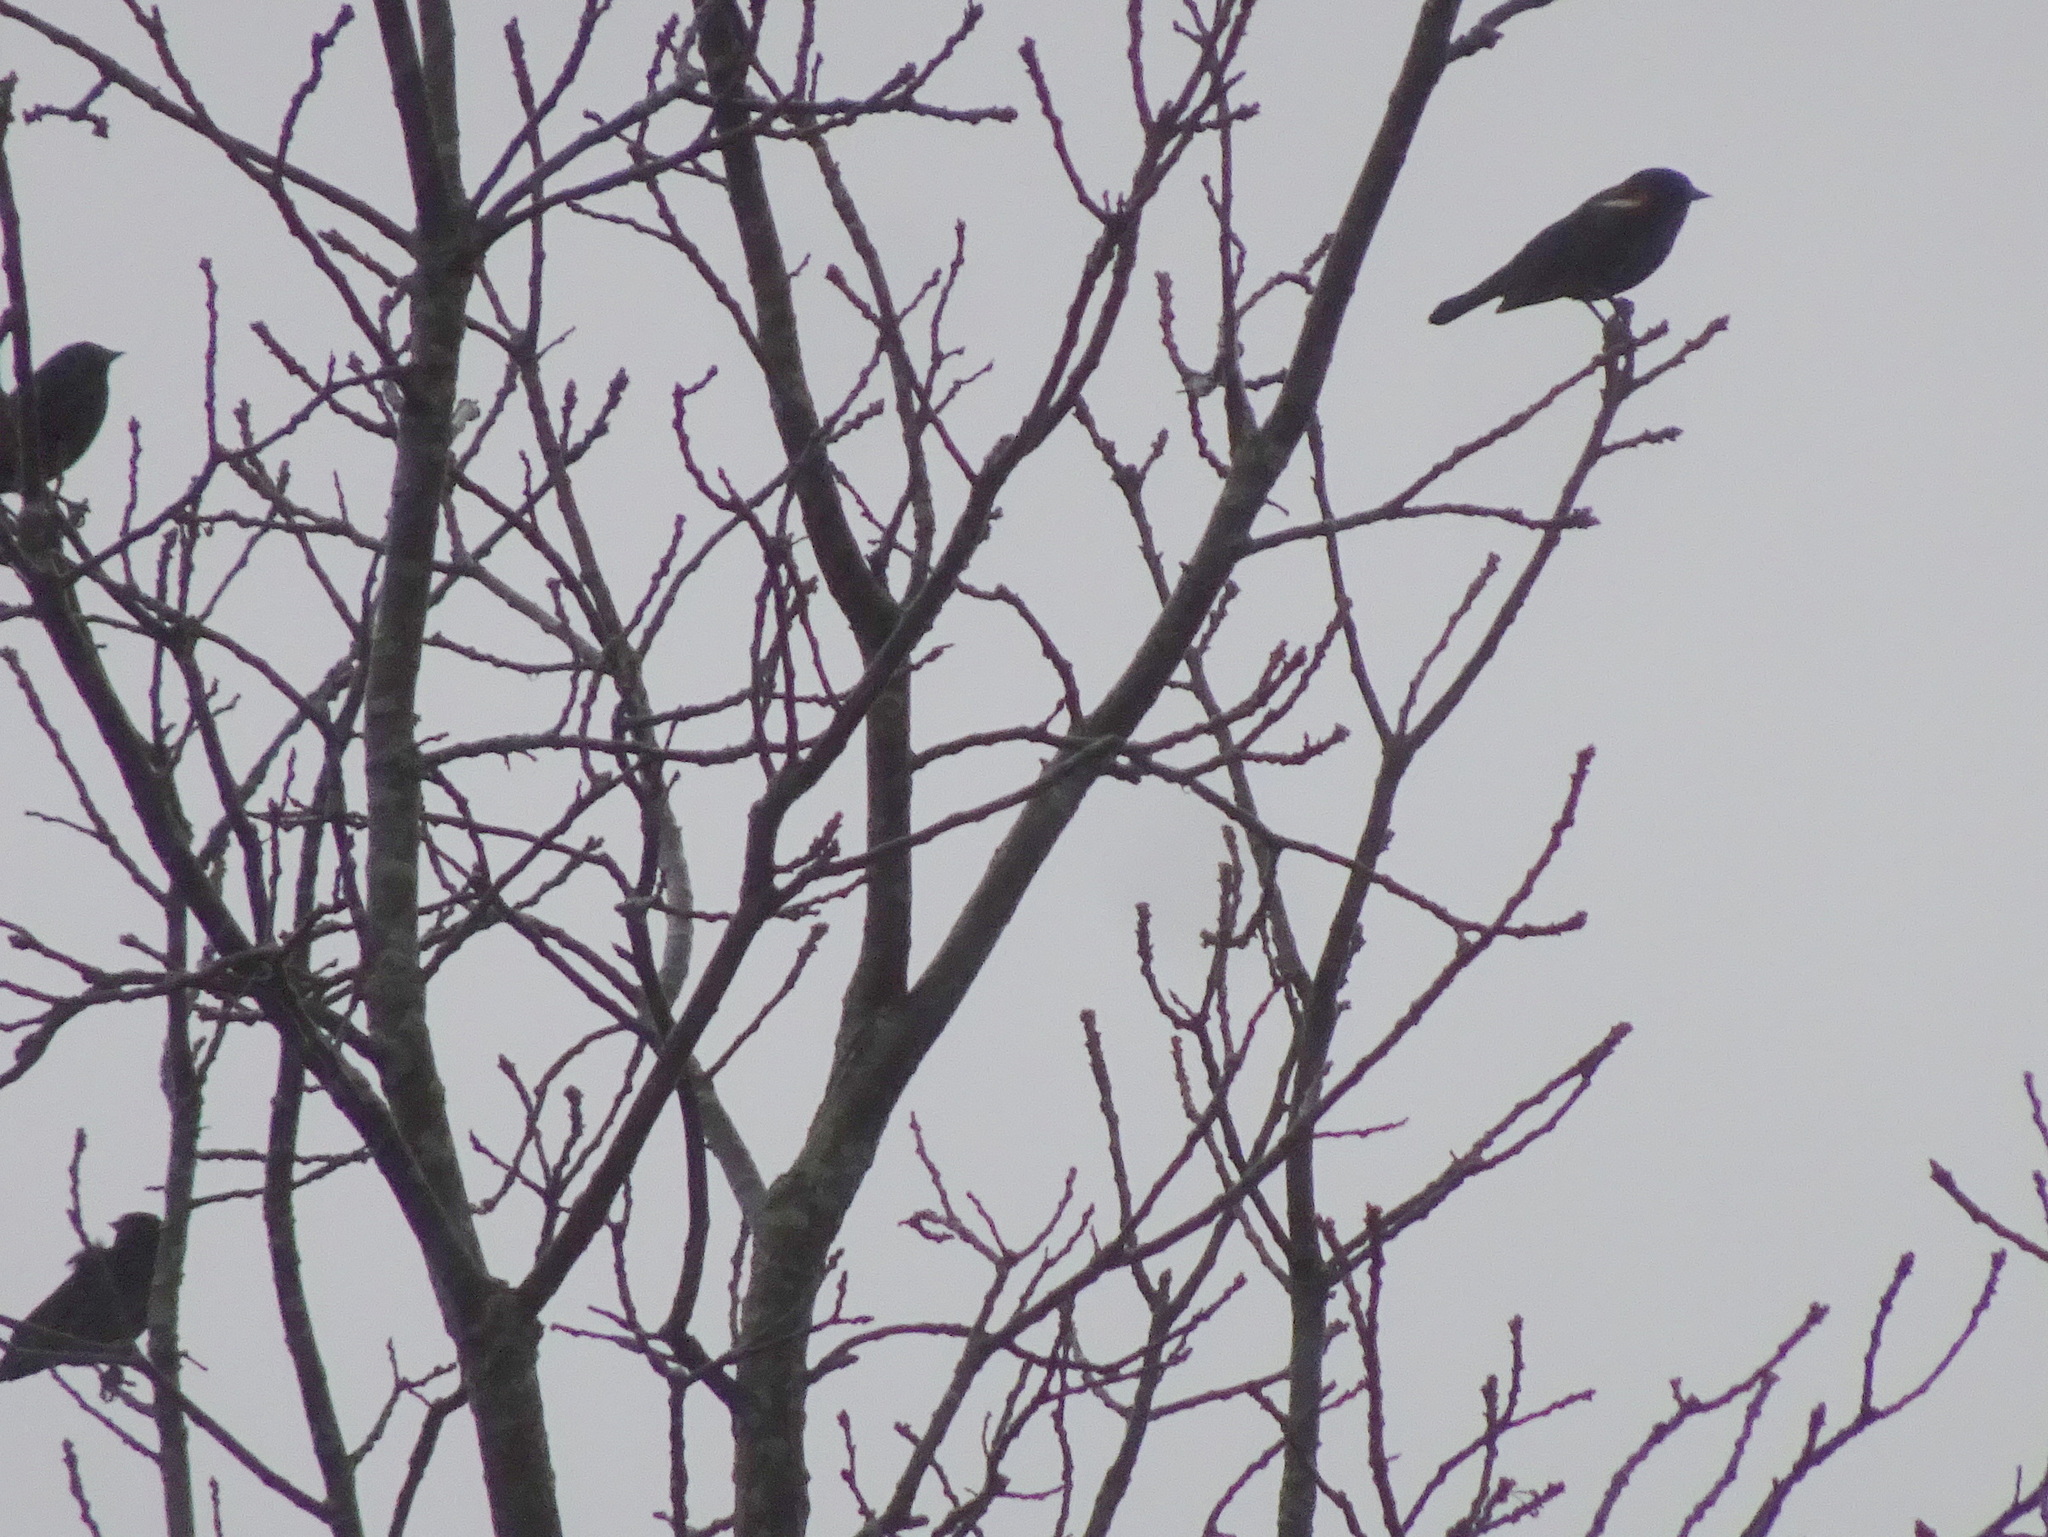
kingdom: Animalia
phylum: Chordata
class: Aves
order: Passeriformes
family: Icteridae
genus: Agelaius
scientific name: Agelaius phoeniceus
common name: Red-winged blackbird
